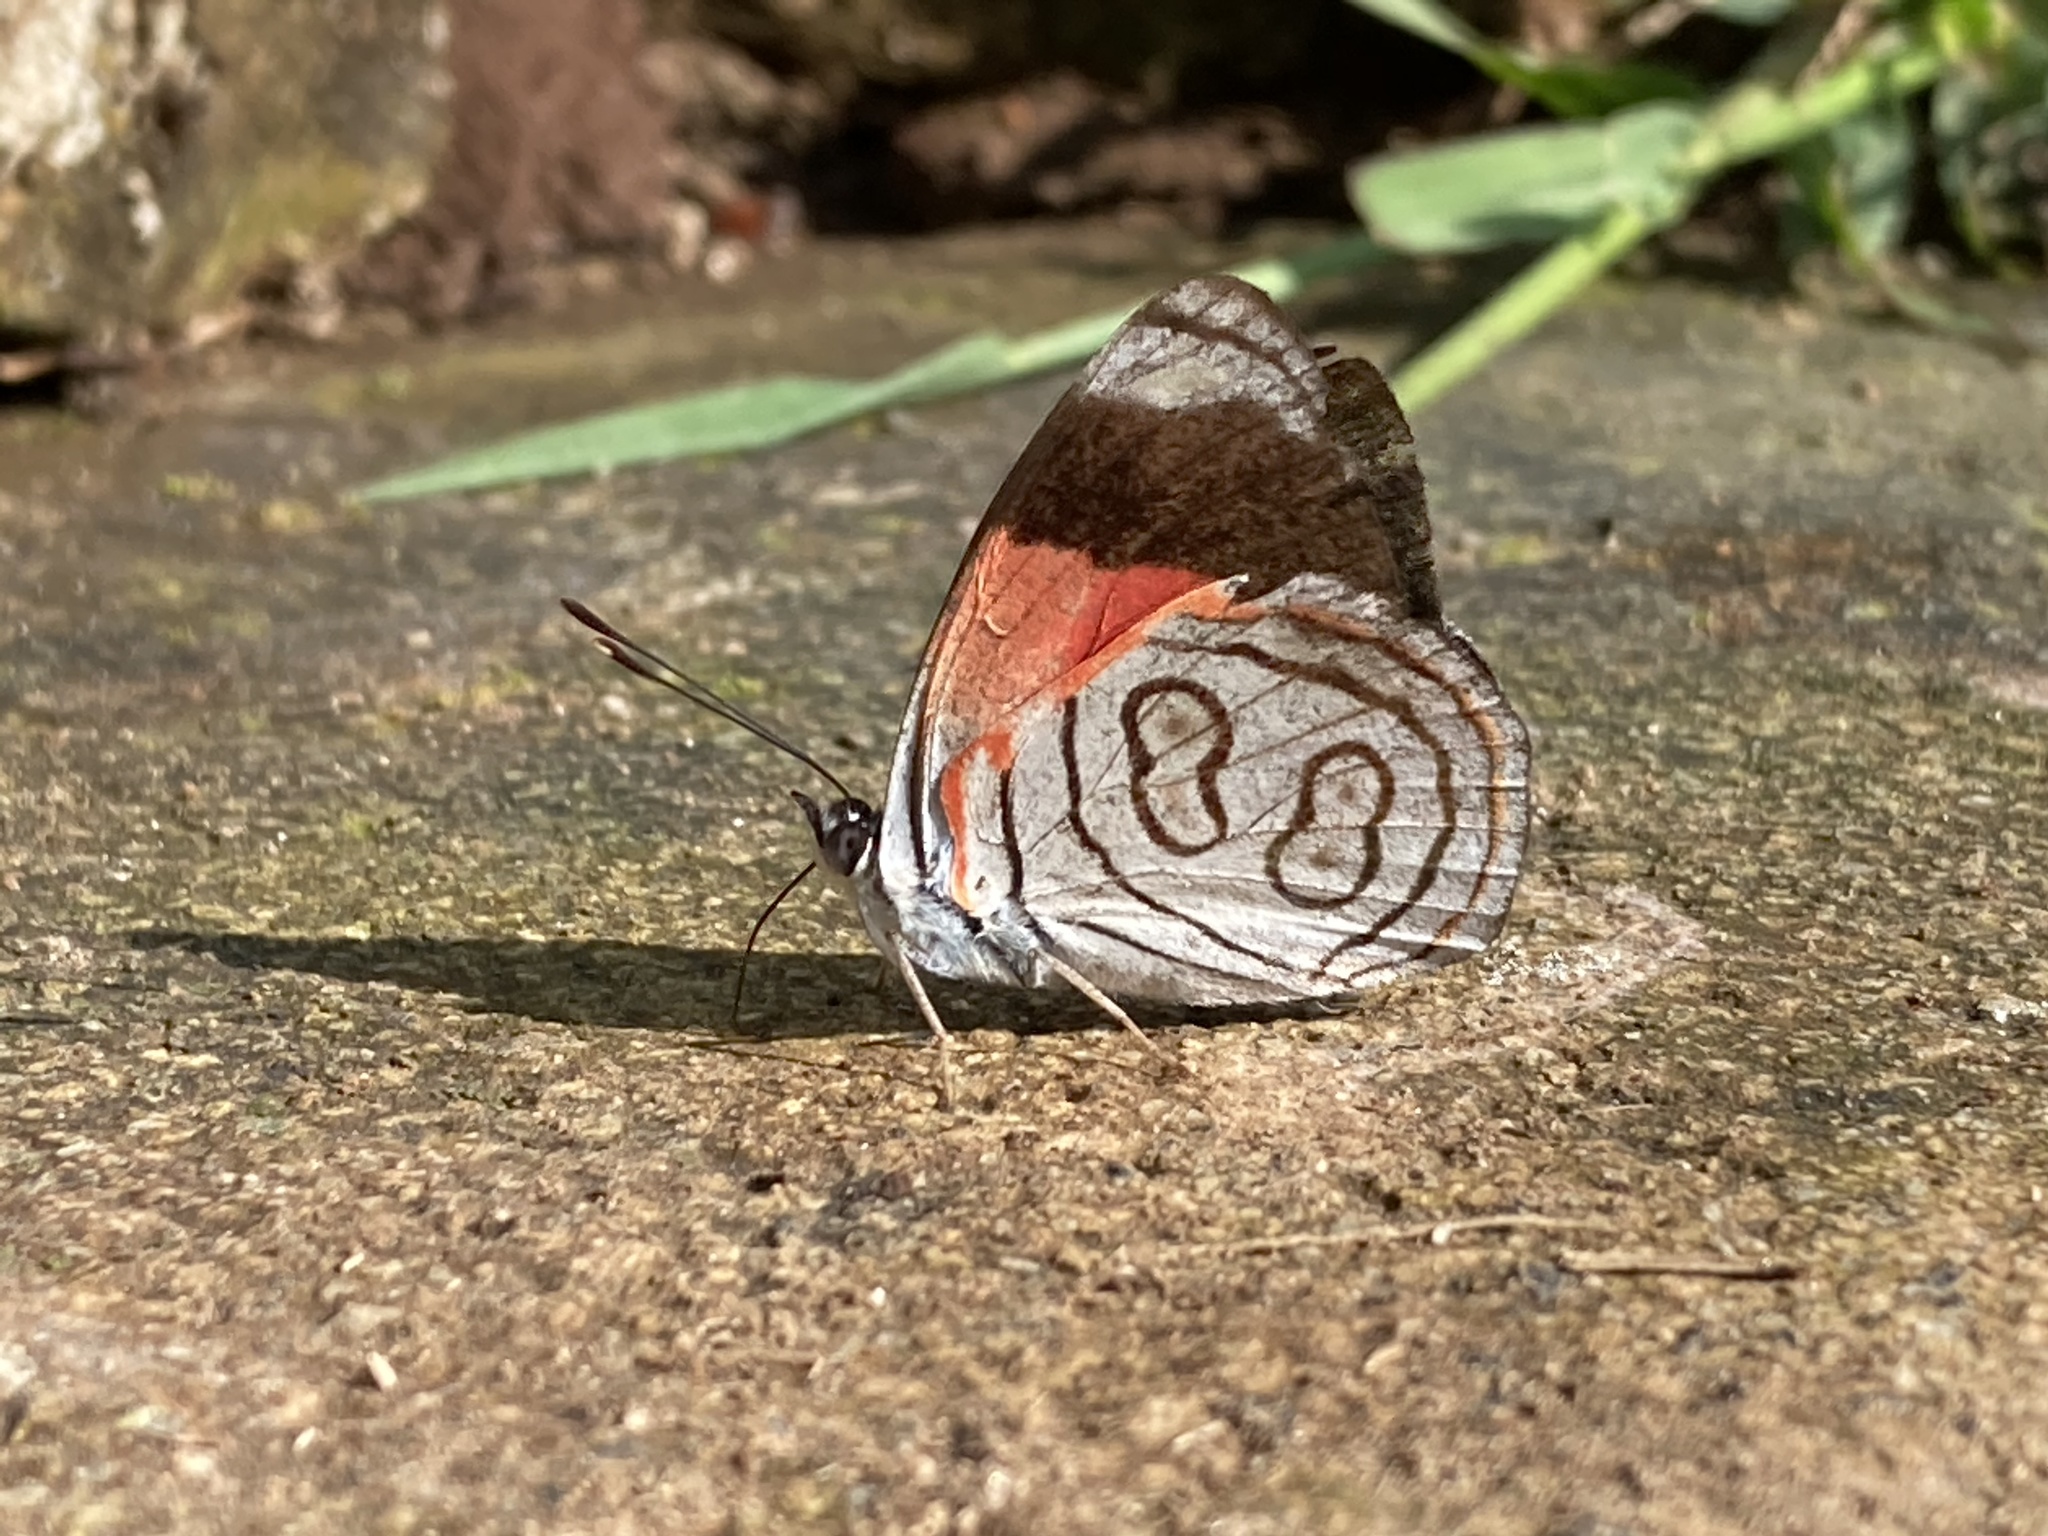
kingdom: Animalia
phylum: Arthropoda
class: Insecta
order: Lepidoptera
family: Nymphalidae
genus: Diaethria
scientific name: Diaethria astala
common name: Navy eighty-eight
